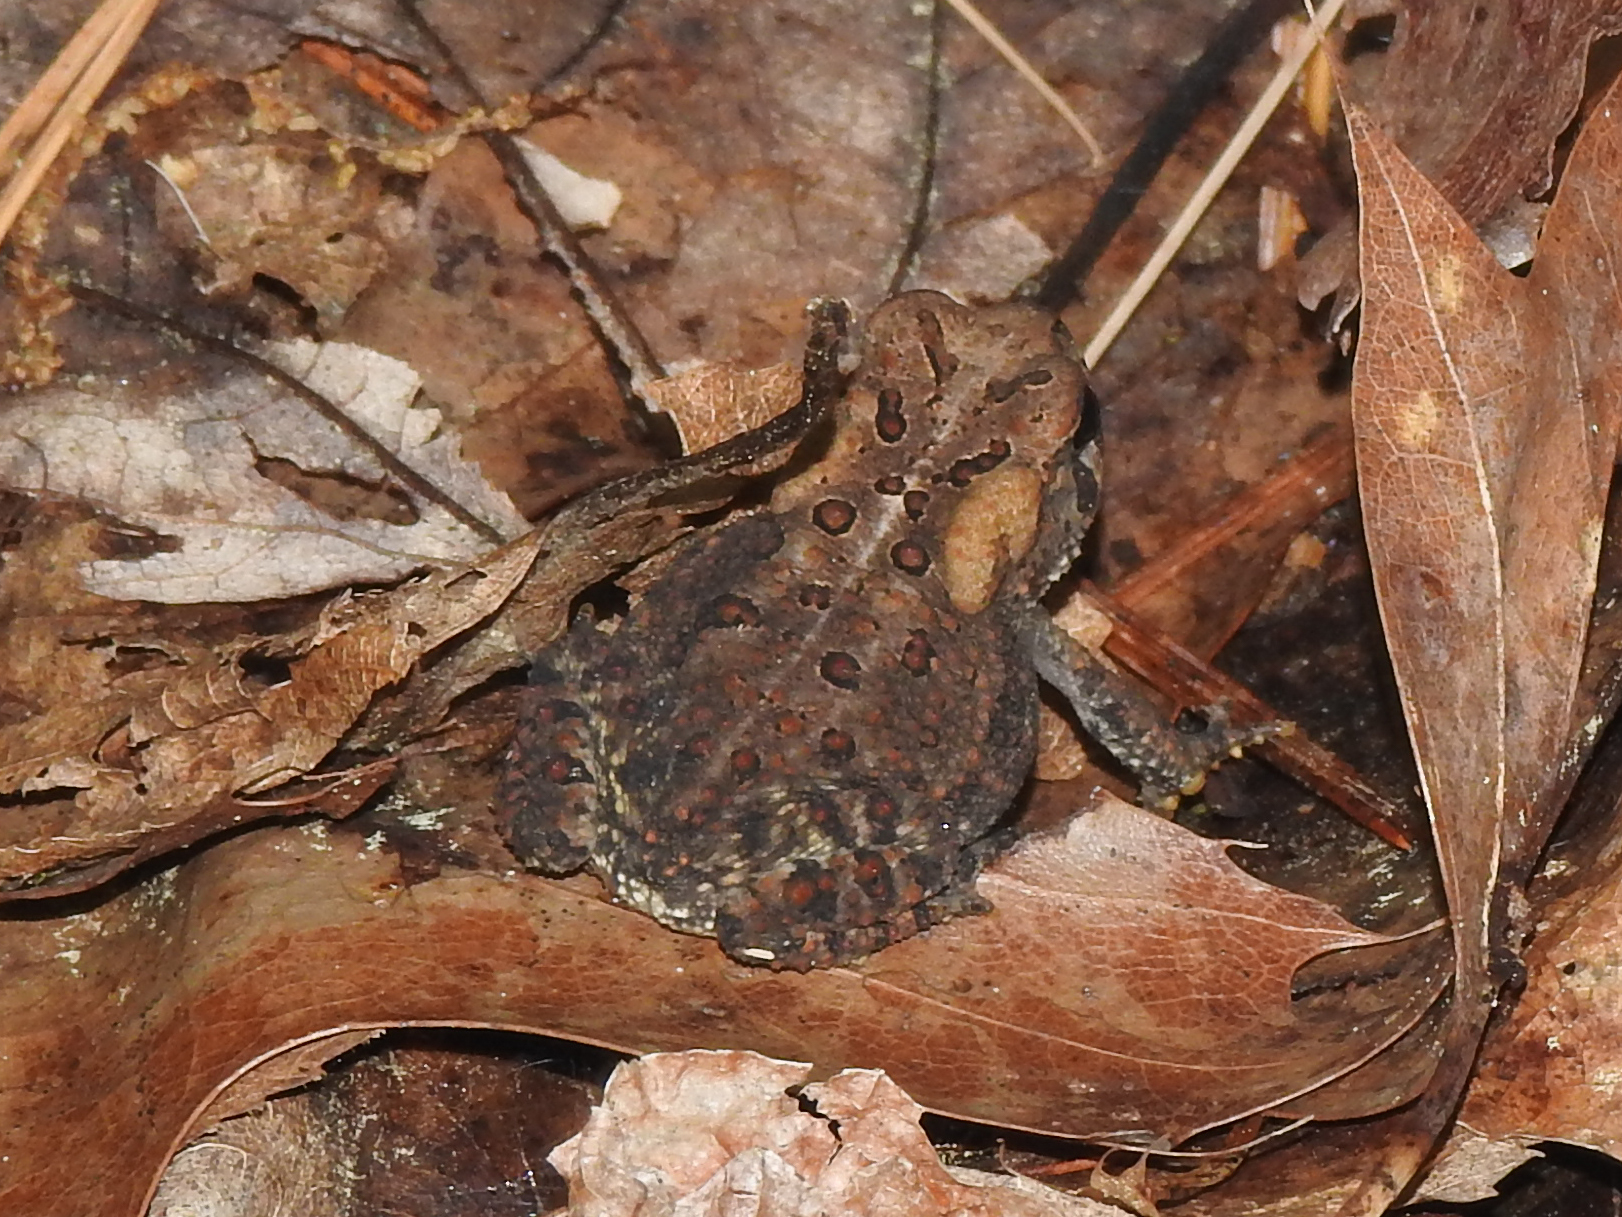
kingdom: Animalia
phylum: Chordata
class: Amphibia
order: Anura
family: Bufonidae
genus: Anaxyrus
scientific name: Anaxyrus americanus
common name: American toad
